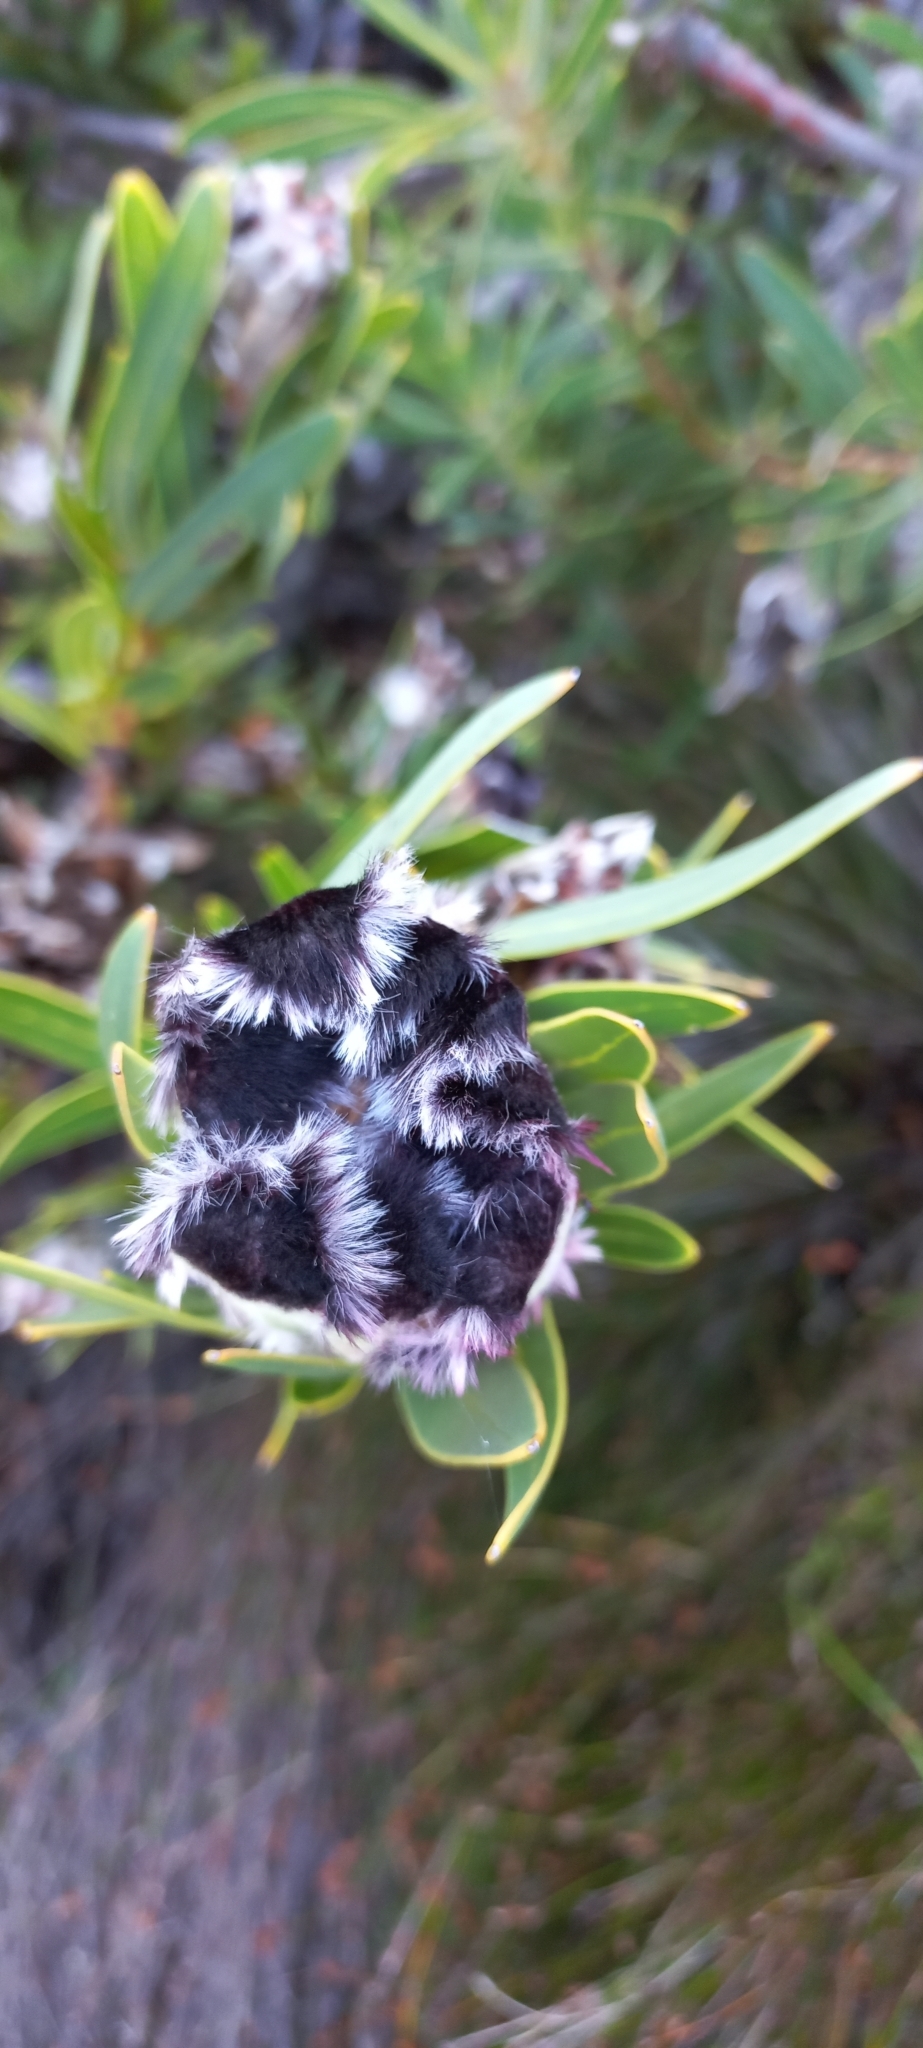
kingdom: Plantae
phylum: Tracheophyta
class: Magnoliopsida
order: Proteales
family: Proteaceae
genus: Protea
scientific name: Protea lepidocarpodendron
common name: Black-bearded protea
